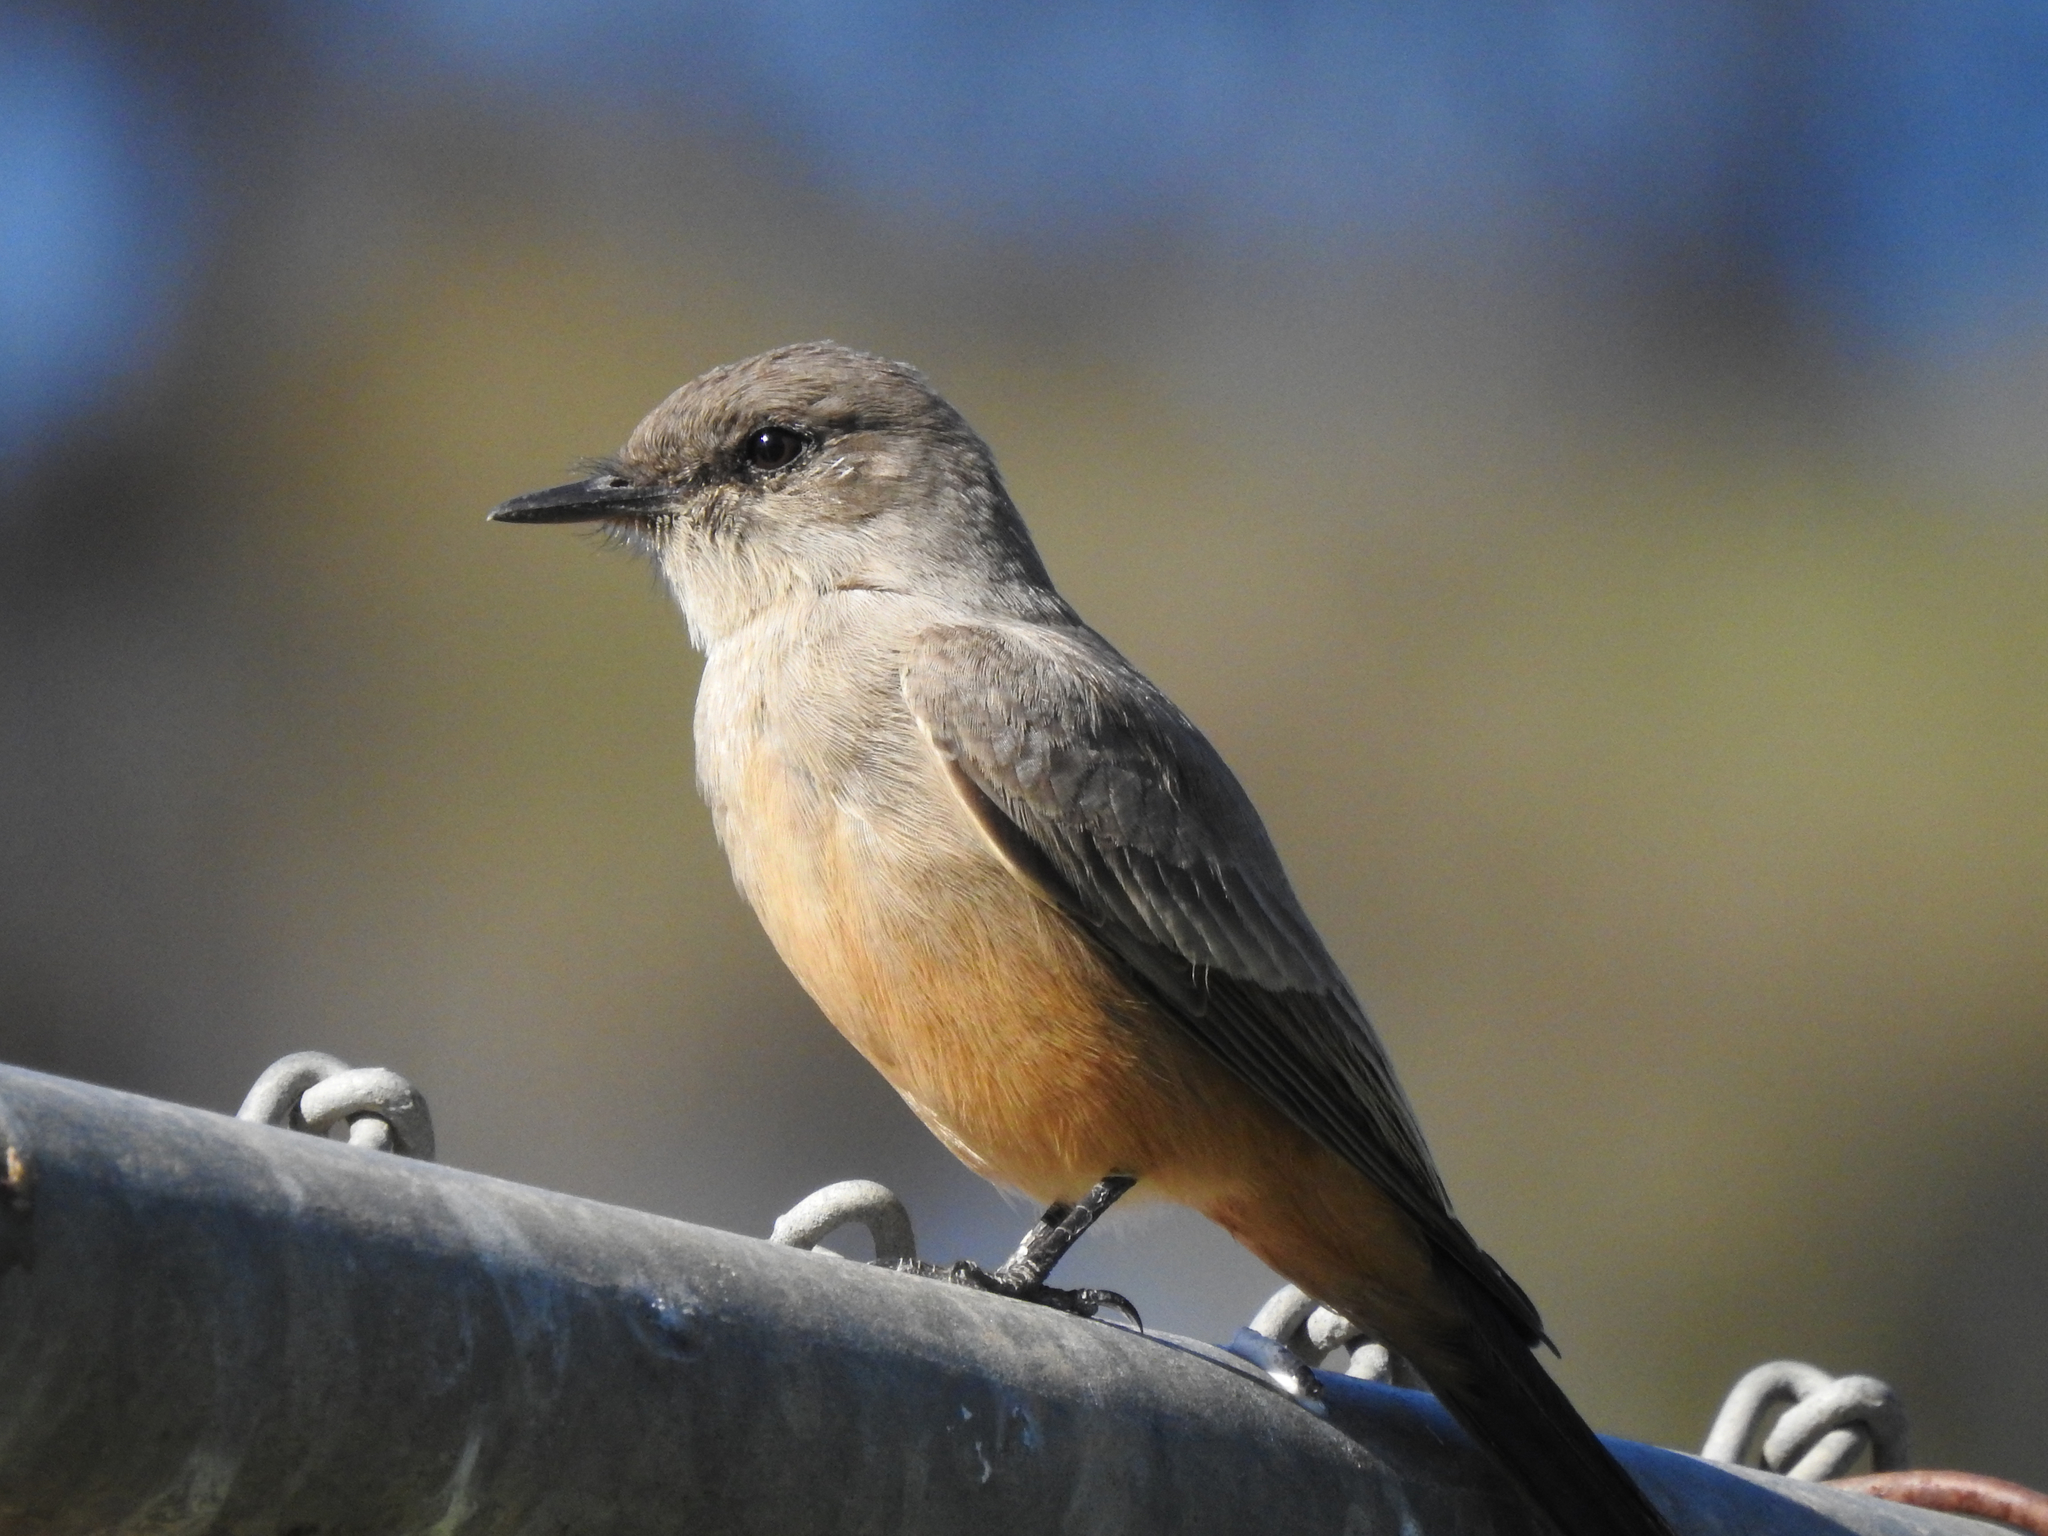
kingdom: Animalia
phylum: Chordata
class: Aves
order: Passeriformes
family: Tyrannidae
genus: Sayornis
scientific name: Sayornis saya
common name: Say's phoebe
